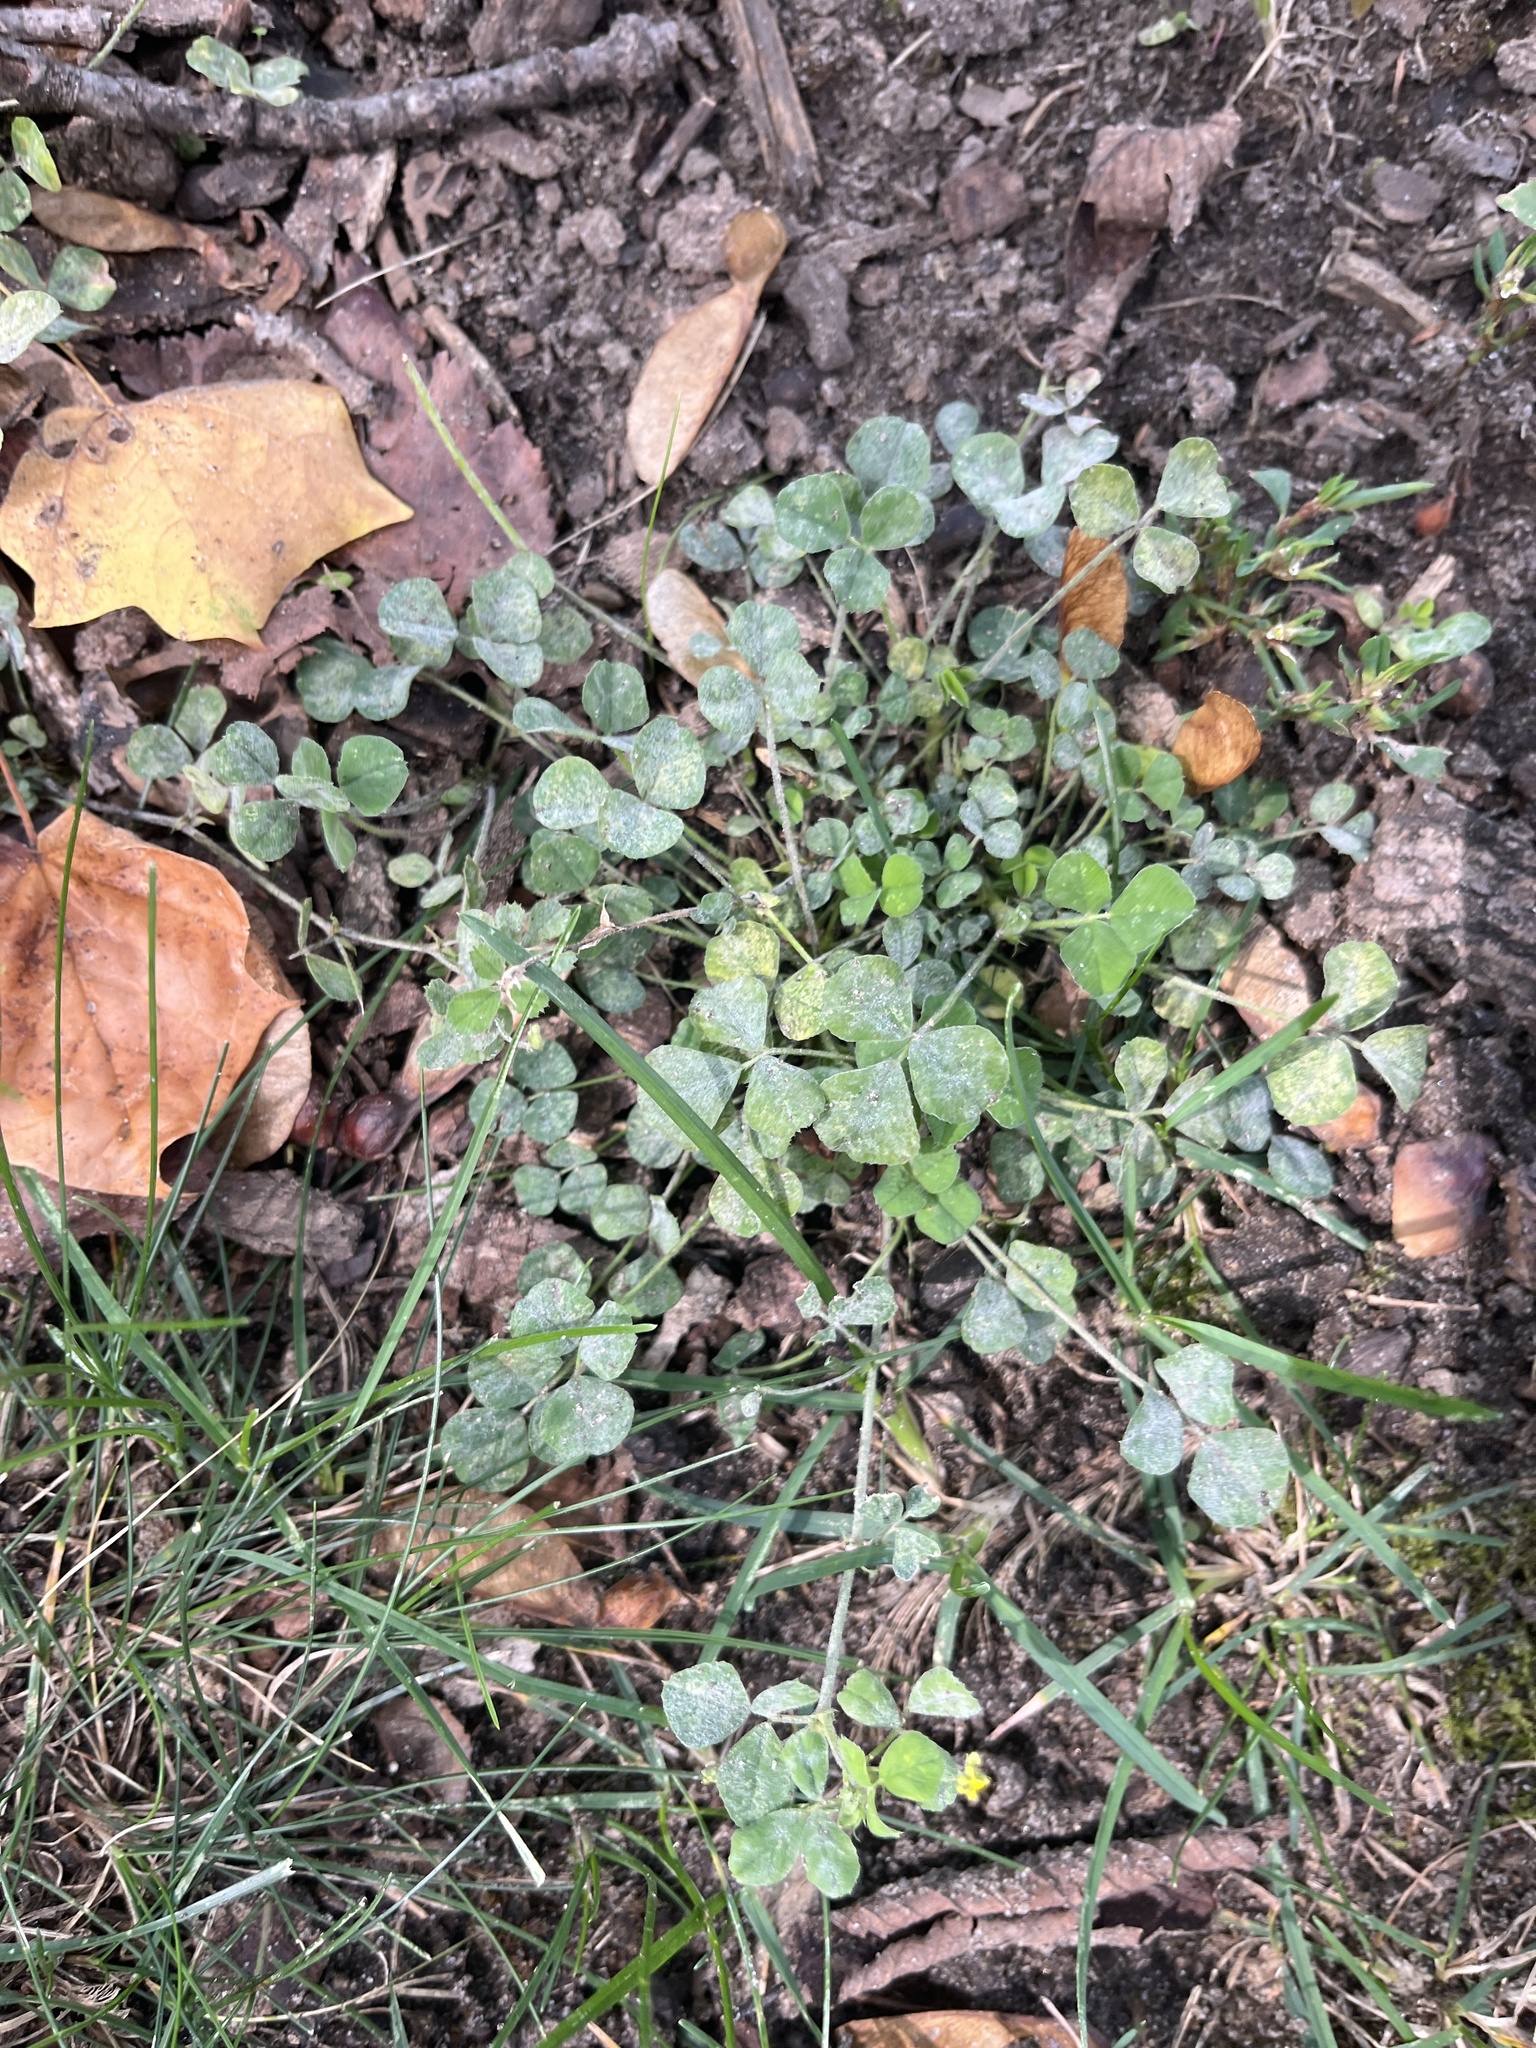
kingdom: Plantae
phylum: Tracheophyta
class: Magnoliopsida
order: Fabales
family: Fabaceae
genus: Medicago
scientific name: Medicago lupulina
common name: Black medick
